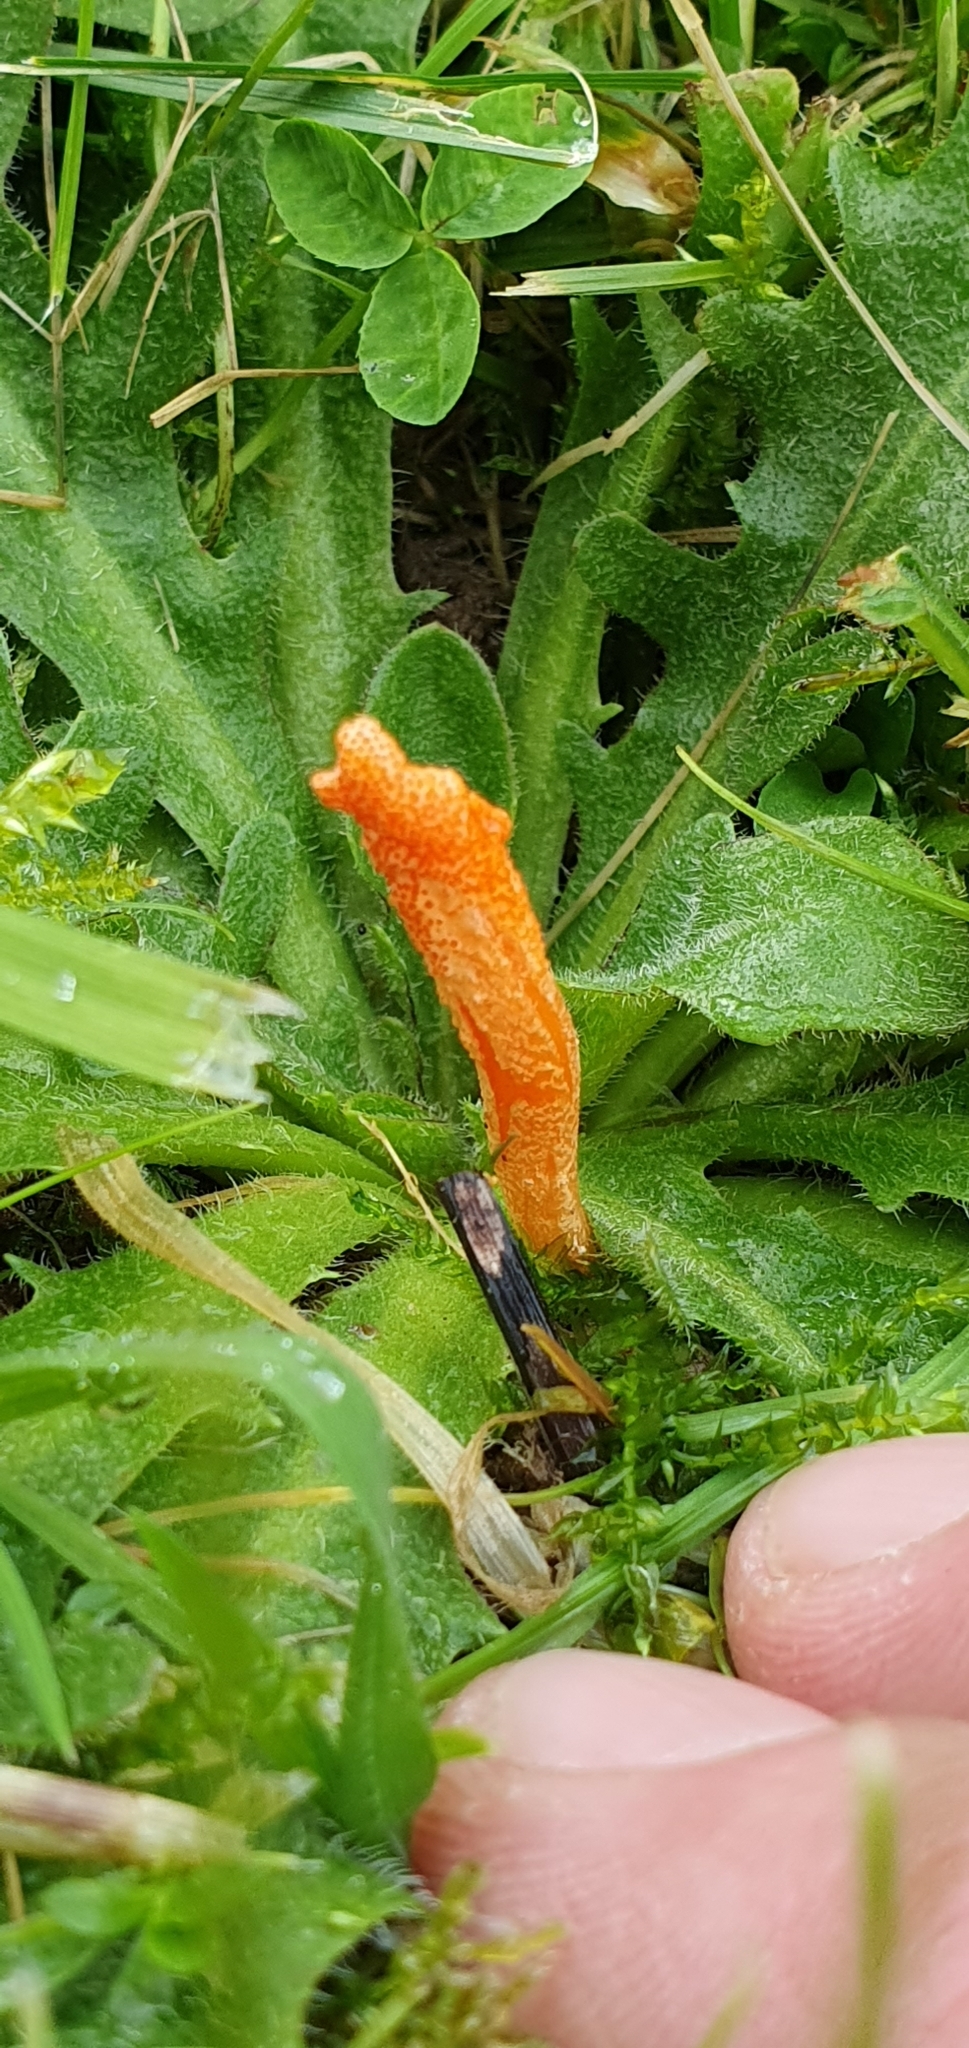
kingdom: Fungi
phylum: Ascomycota
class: Sordariomycetes
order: Hypocreales
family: Cordycipitaceae
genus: Cordyceps
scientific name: Cordyceps militaris
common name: Scarlet caterpillar fungus
